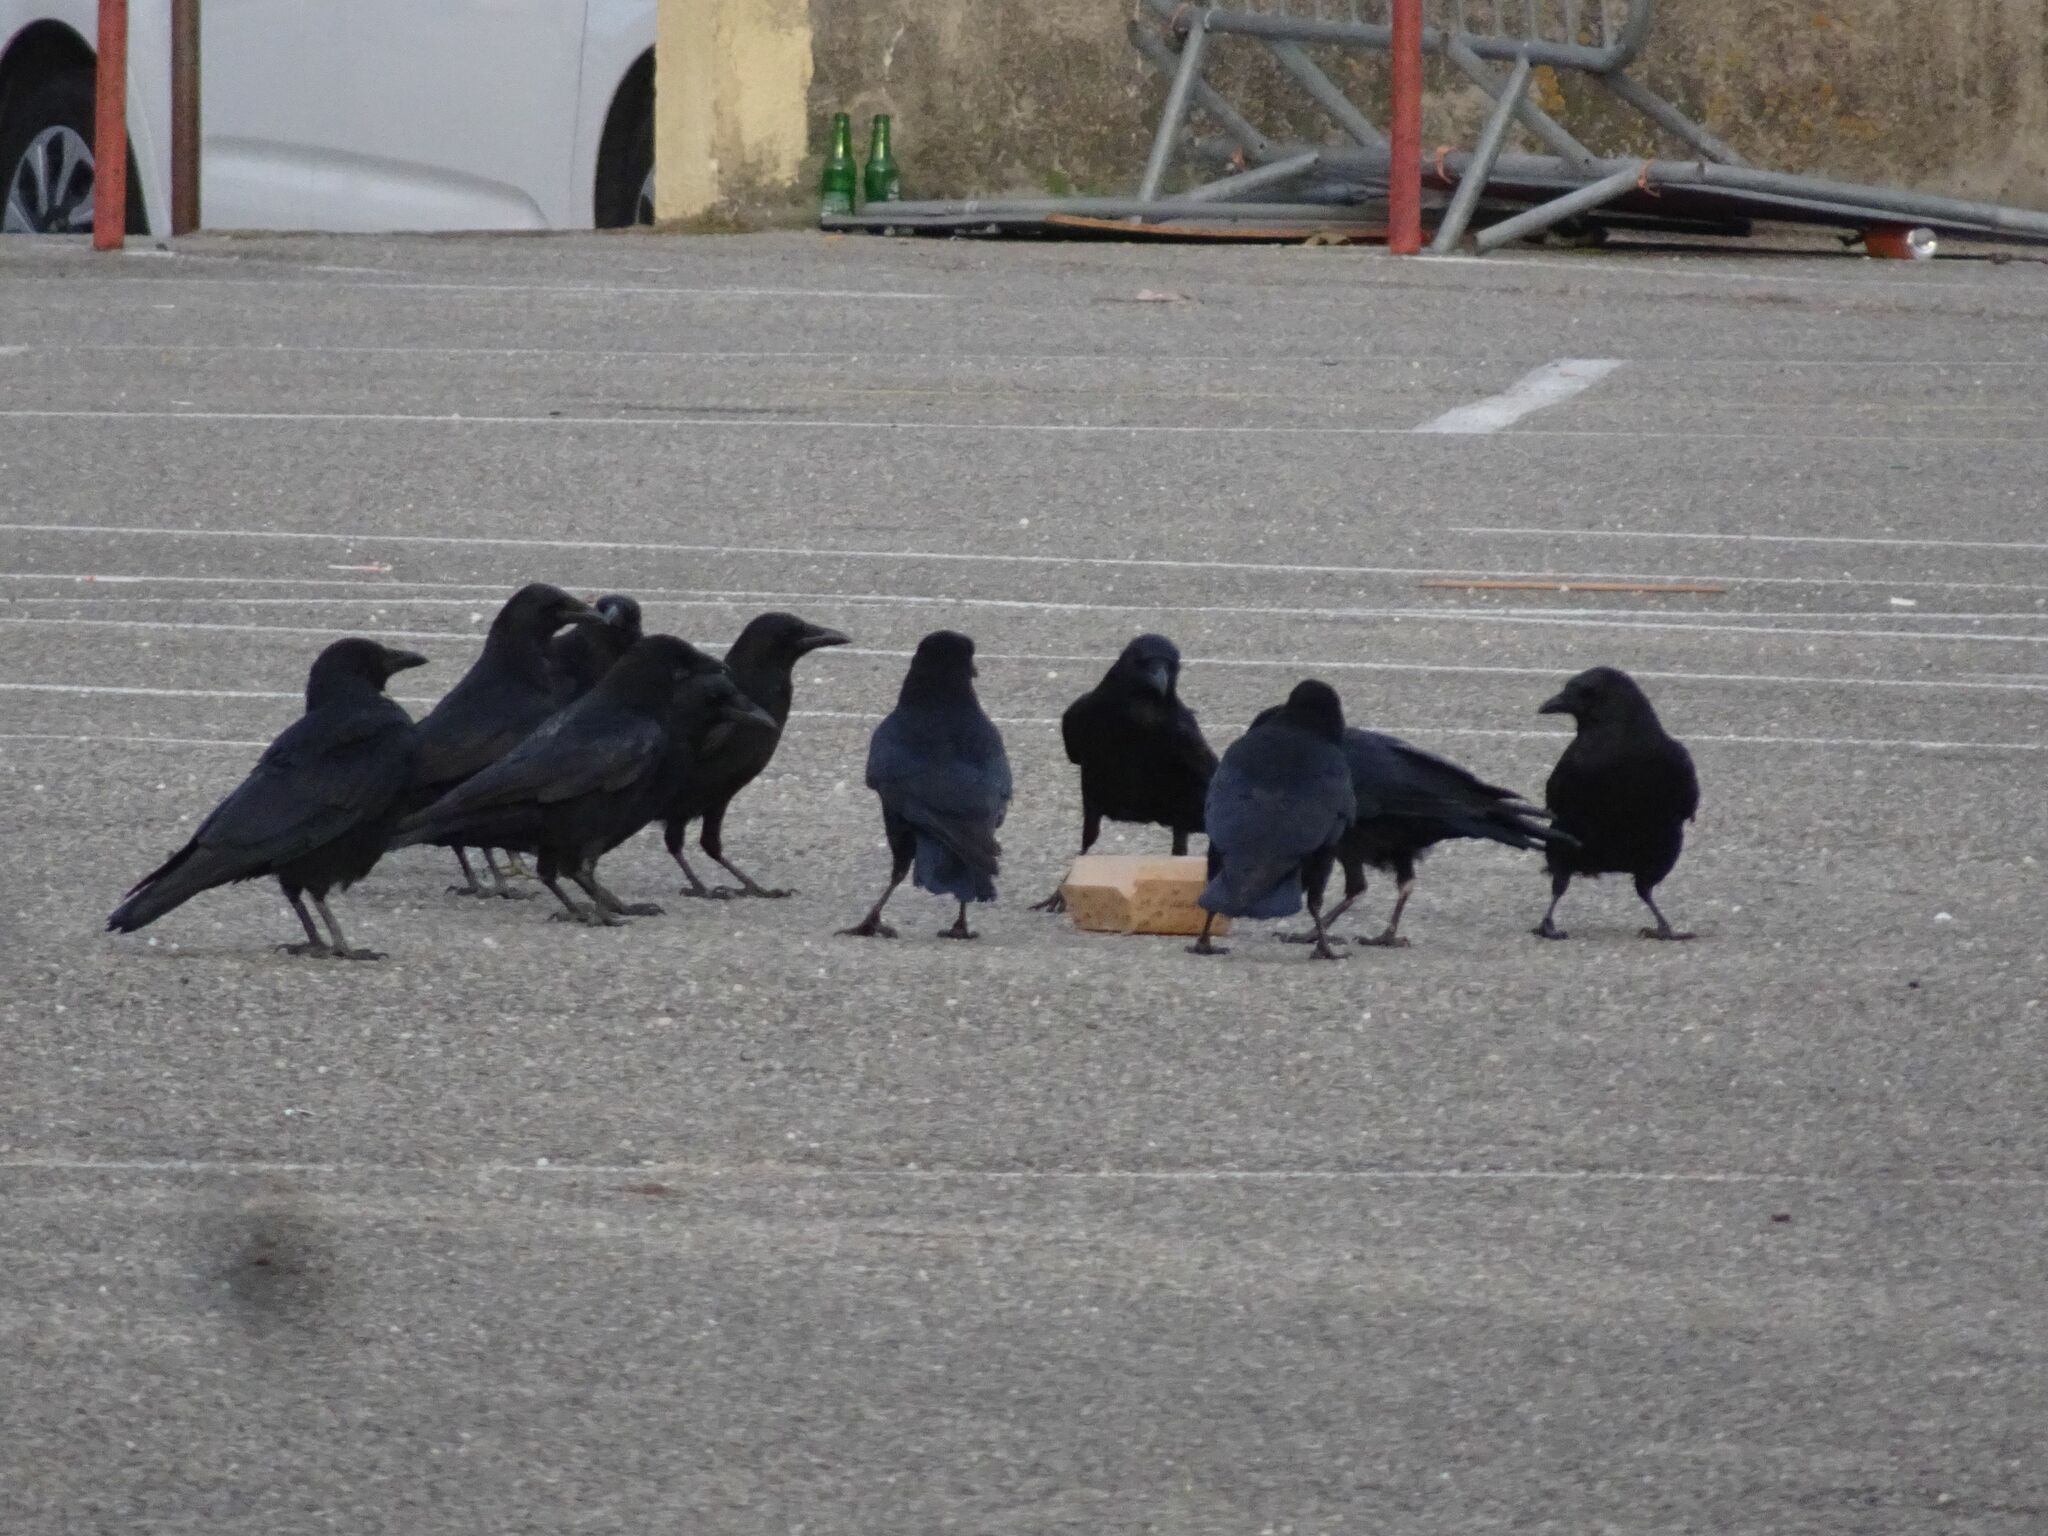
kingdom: Animalia
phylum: Chordata
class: Aves
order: Passeriformes
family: Corvidae
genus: Corvus
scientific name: Corvus corone
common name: Carrion crow
